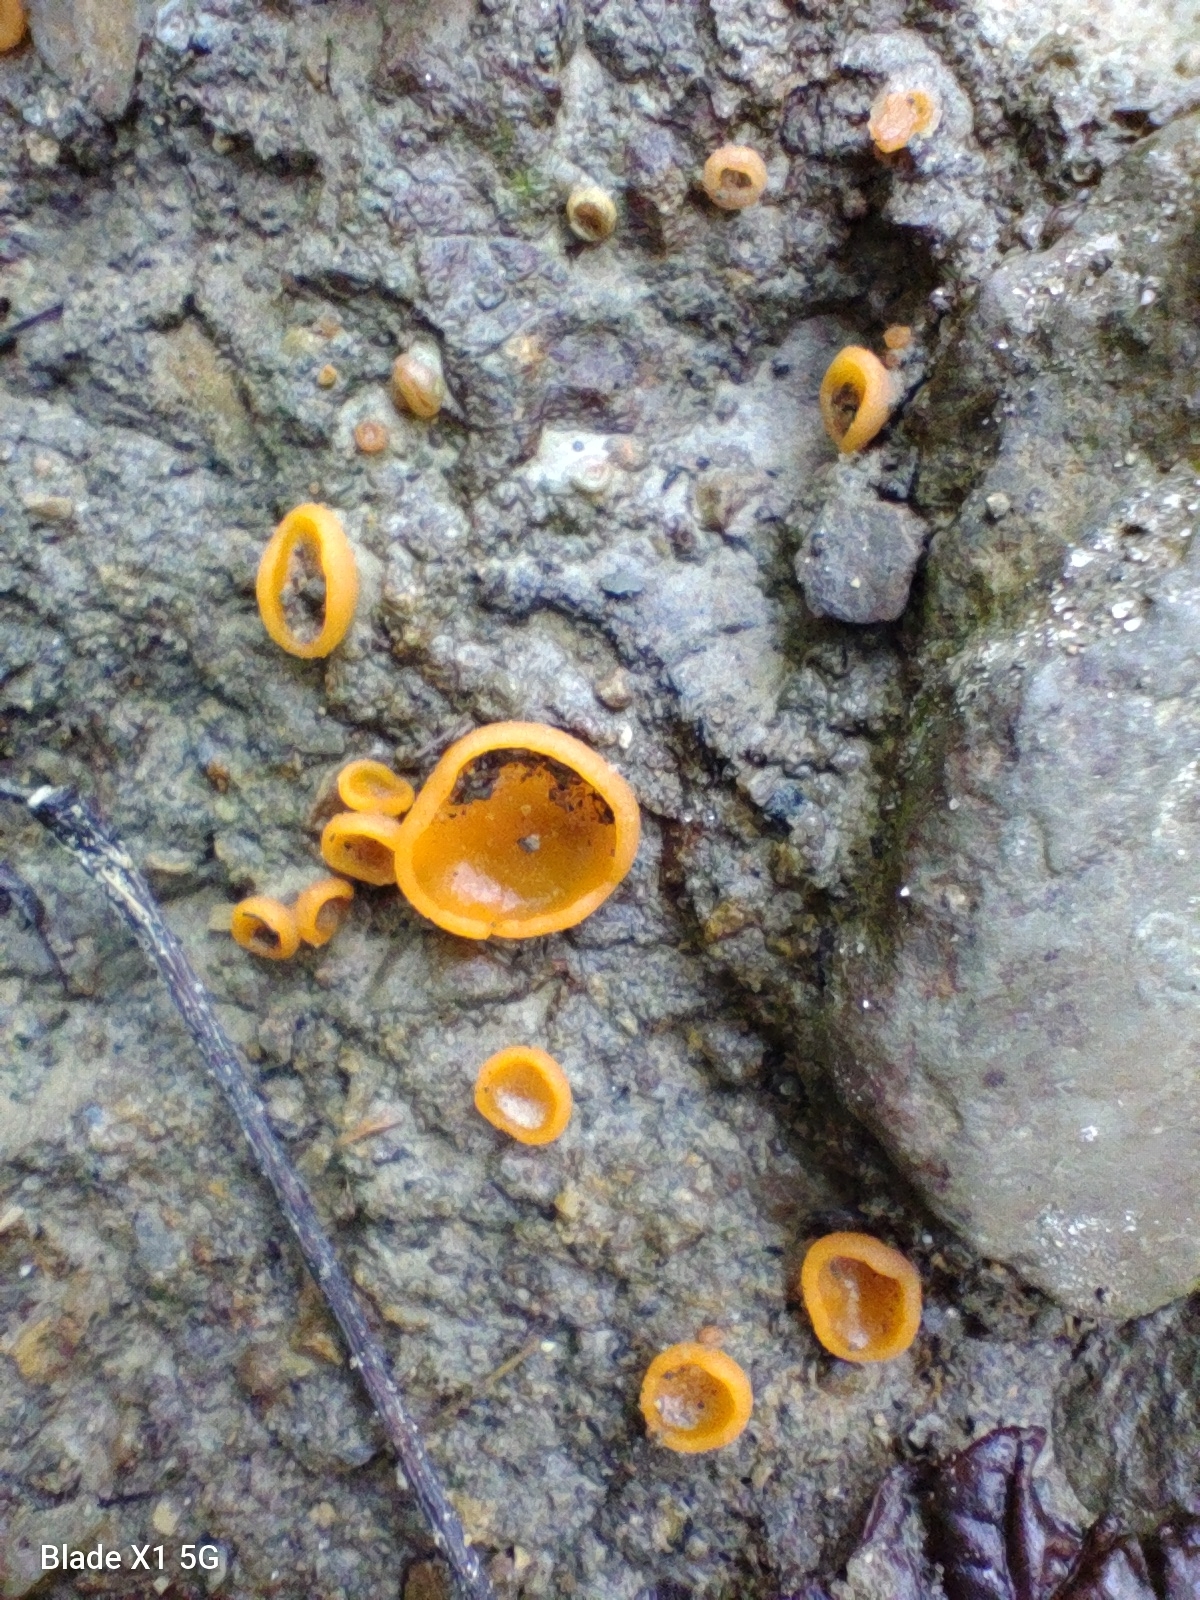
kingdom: Fungi
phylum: Ascomycota
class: Pezizomycetes
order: Pezizales
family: Pyronemataceae
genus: Aleuria
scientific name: Aleuria aurantia
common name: Orange peel fungus
